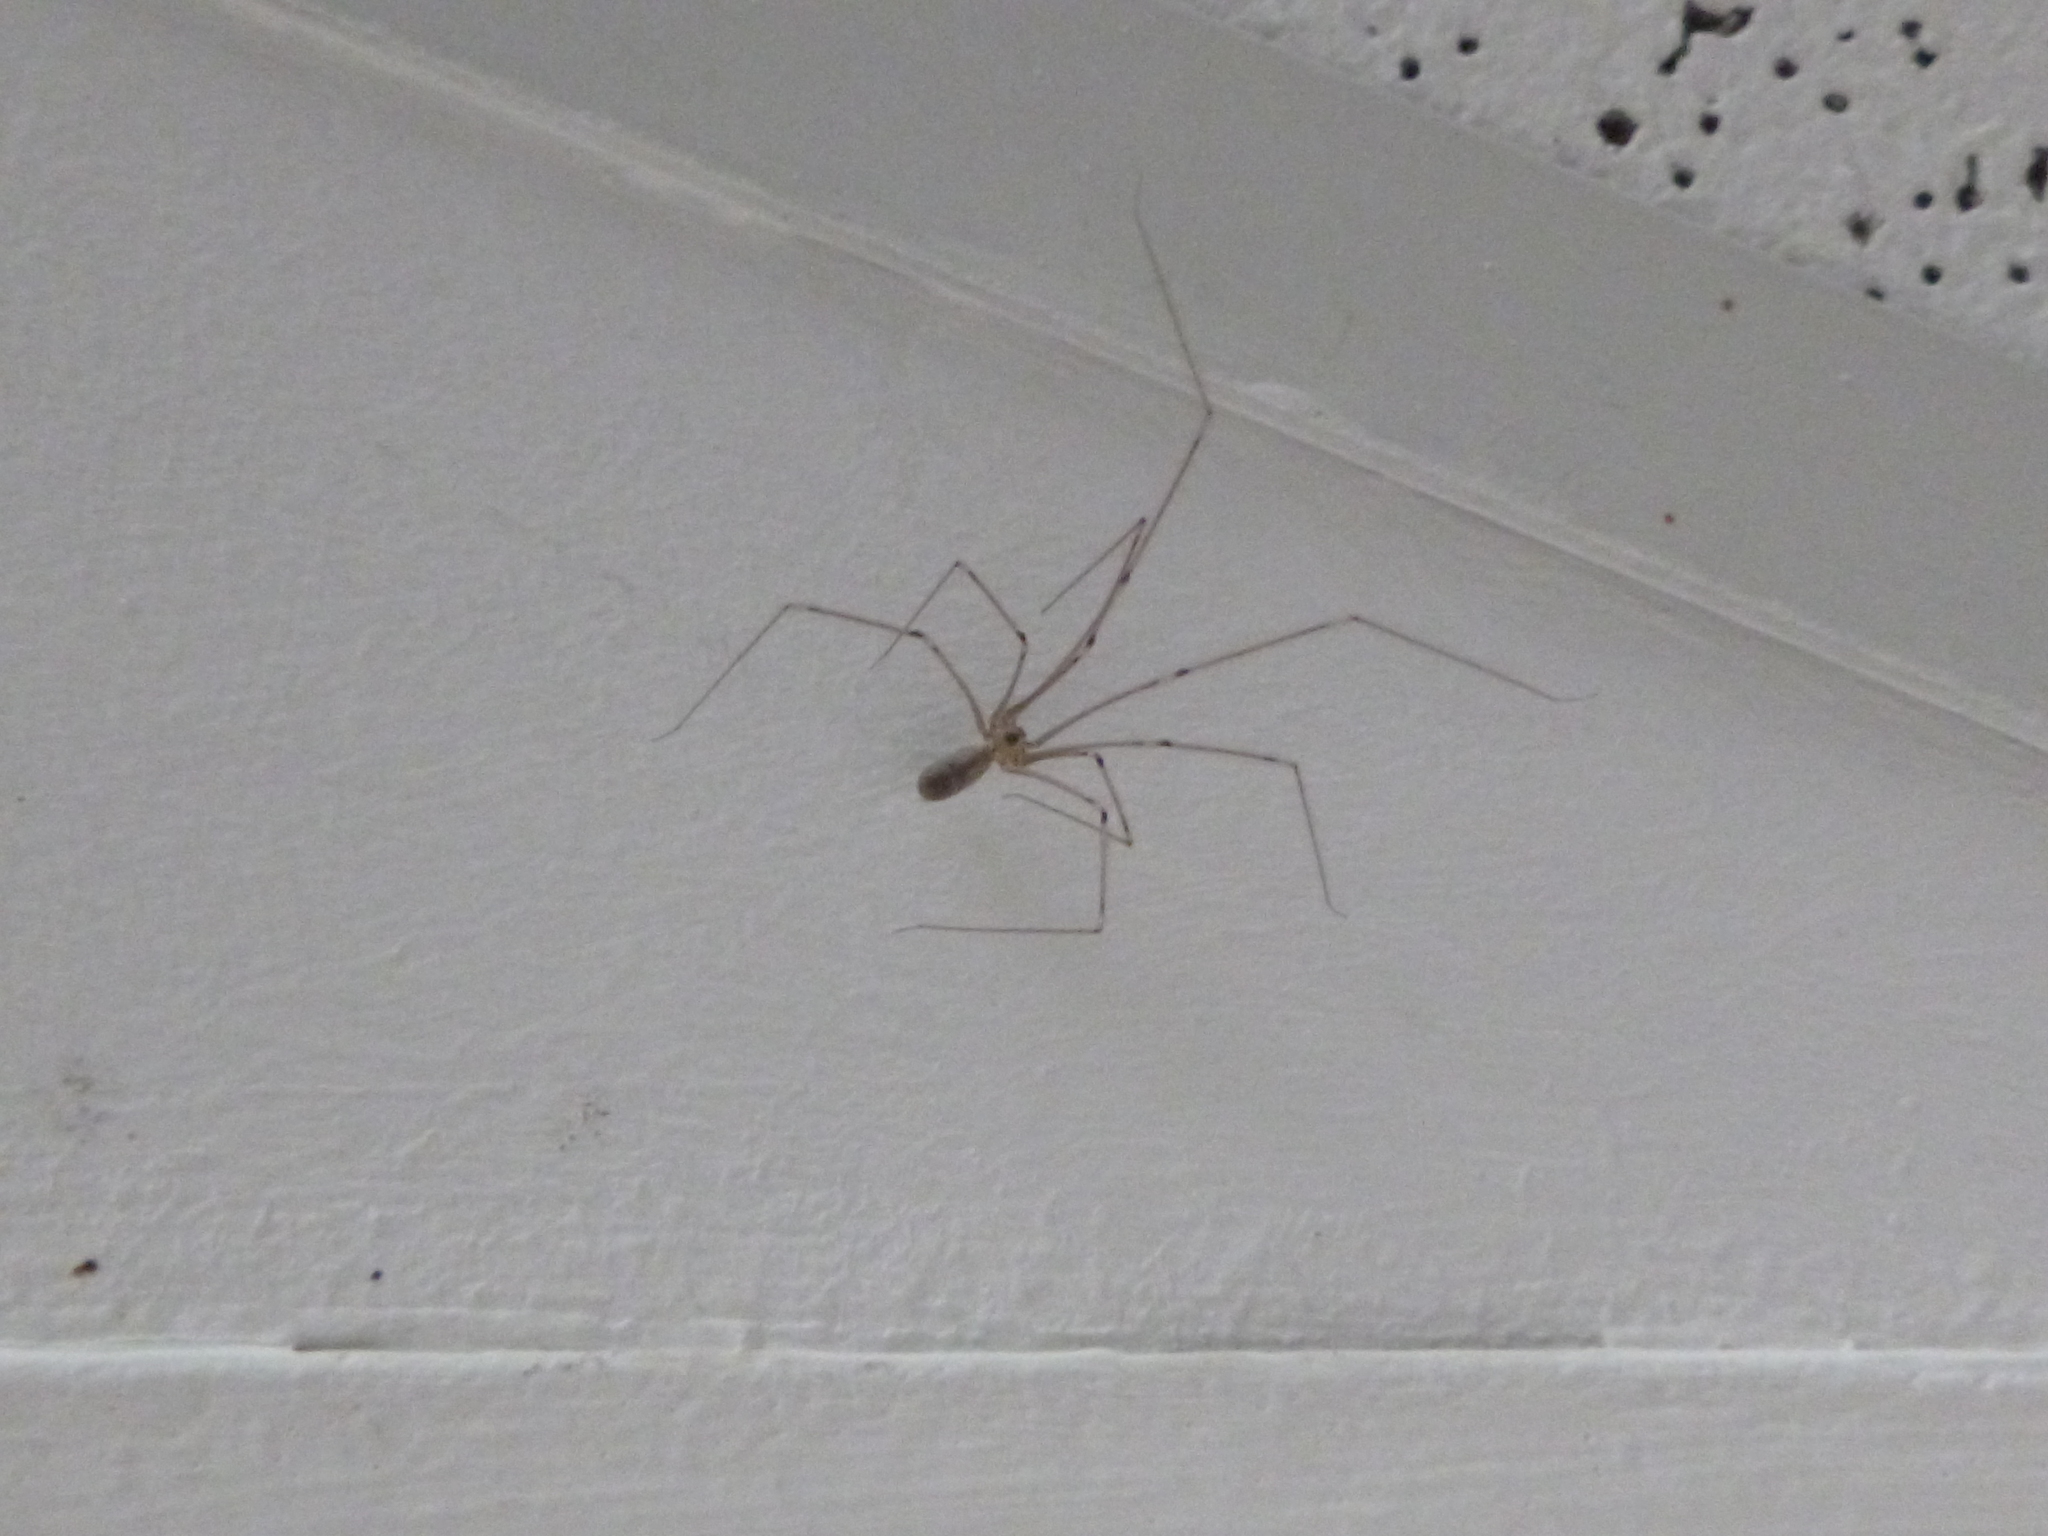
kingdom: Animalia
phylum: Arthropoda
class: Arachnida
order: Araneae
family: Pholcidae
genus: Pholcus
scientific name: Pholcus phalangioides
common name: Longbodied cellar spider
